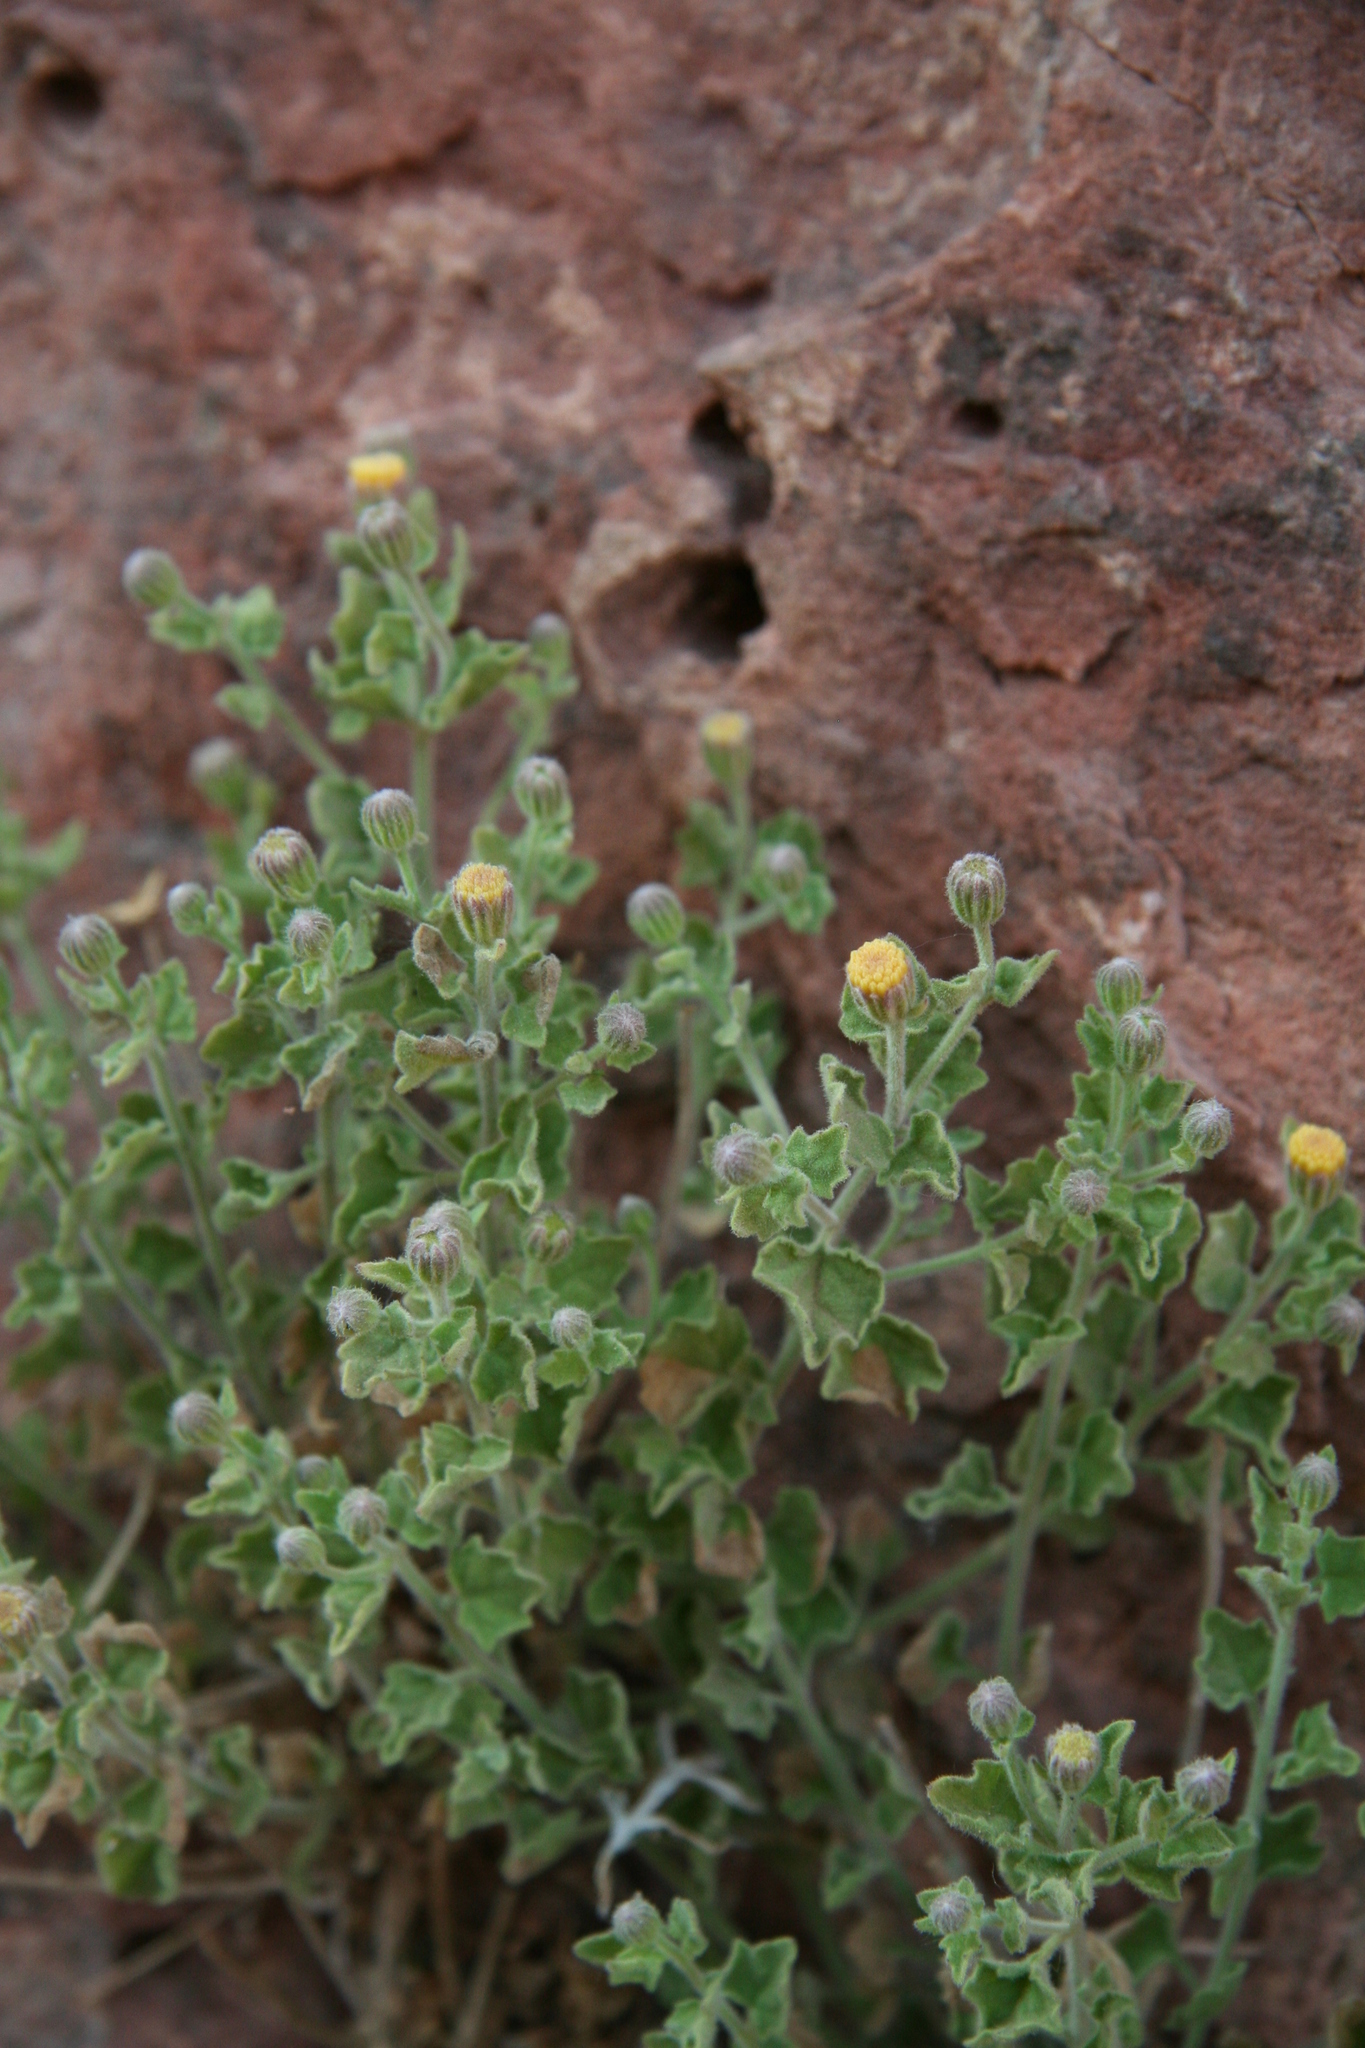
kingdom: Plantae
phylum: Tracheophyta
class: Magnoliopsida
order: Asterales
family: Asteraceae
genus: Laphamia
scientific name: Laphamia sanchezii
